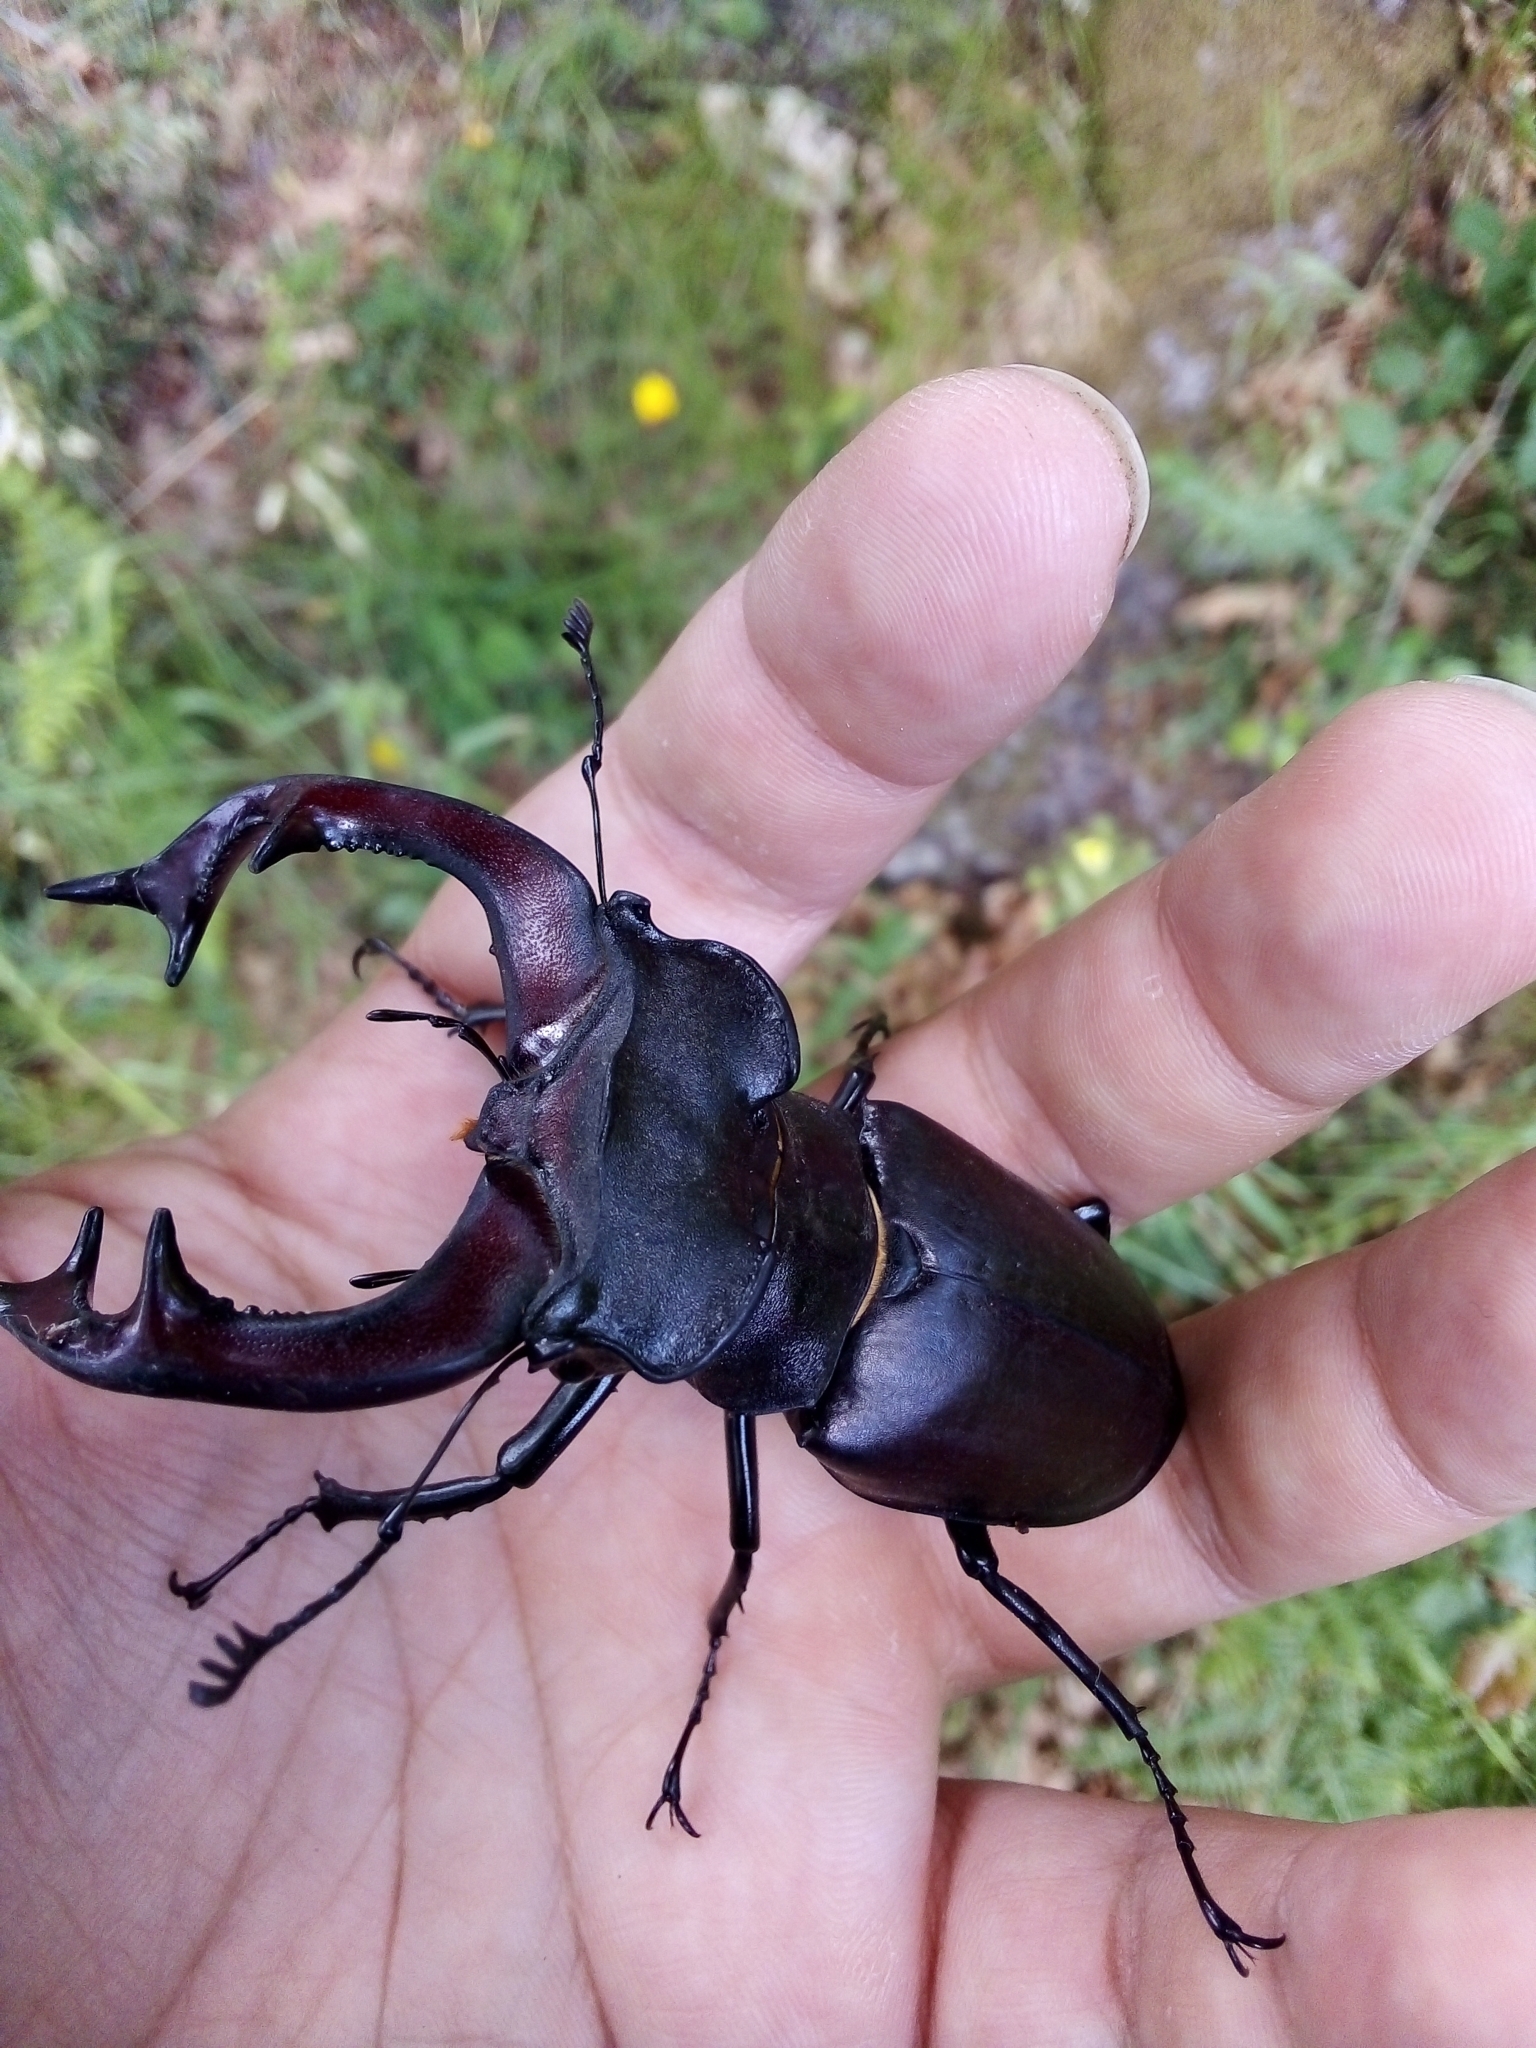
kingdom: Animalia
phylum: Arthropoda
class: Insecta
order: Coleoptera
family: Lucanidae
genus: Lucanus
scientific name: Lucanus cervus
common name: Stag beetle
